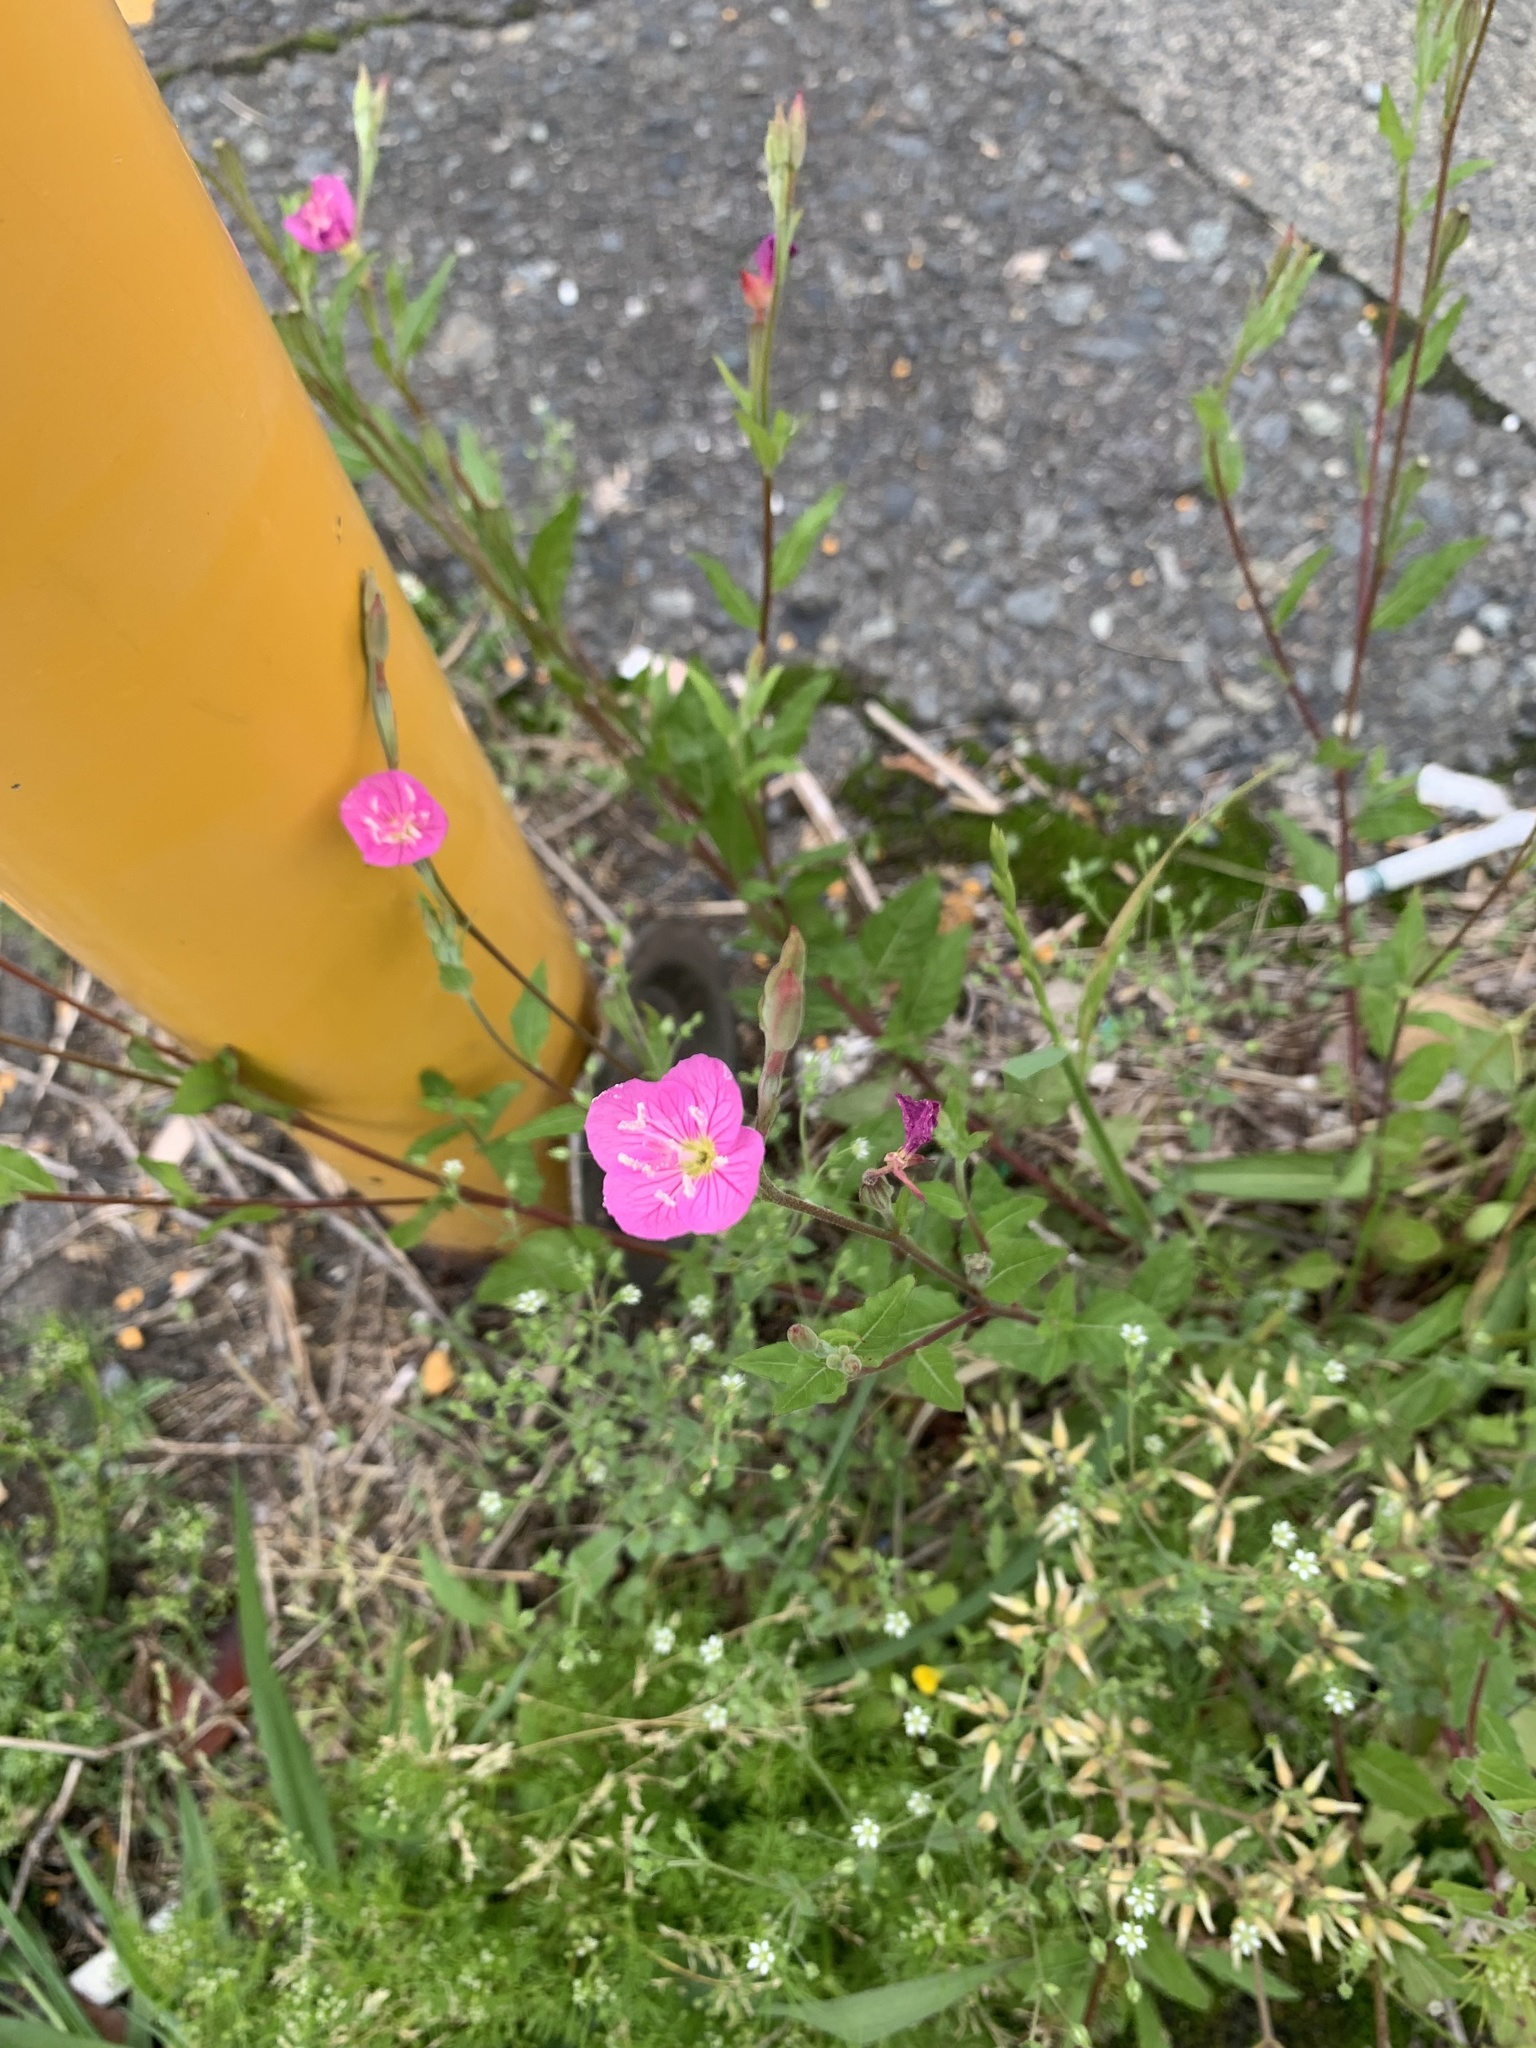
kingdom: Plantae
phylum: Tracheophyta
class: Magnoliopsida
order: Myrtales
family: Onagraceae
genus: Oenothera
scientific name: Oenothera rosea
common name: Rosy evening-primrose
